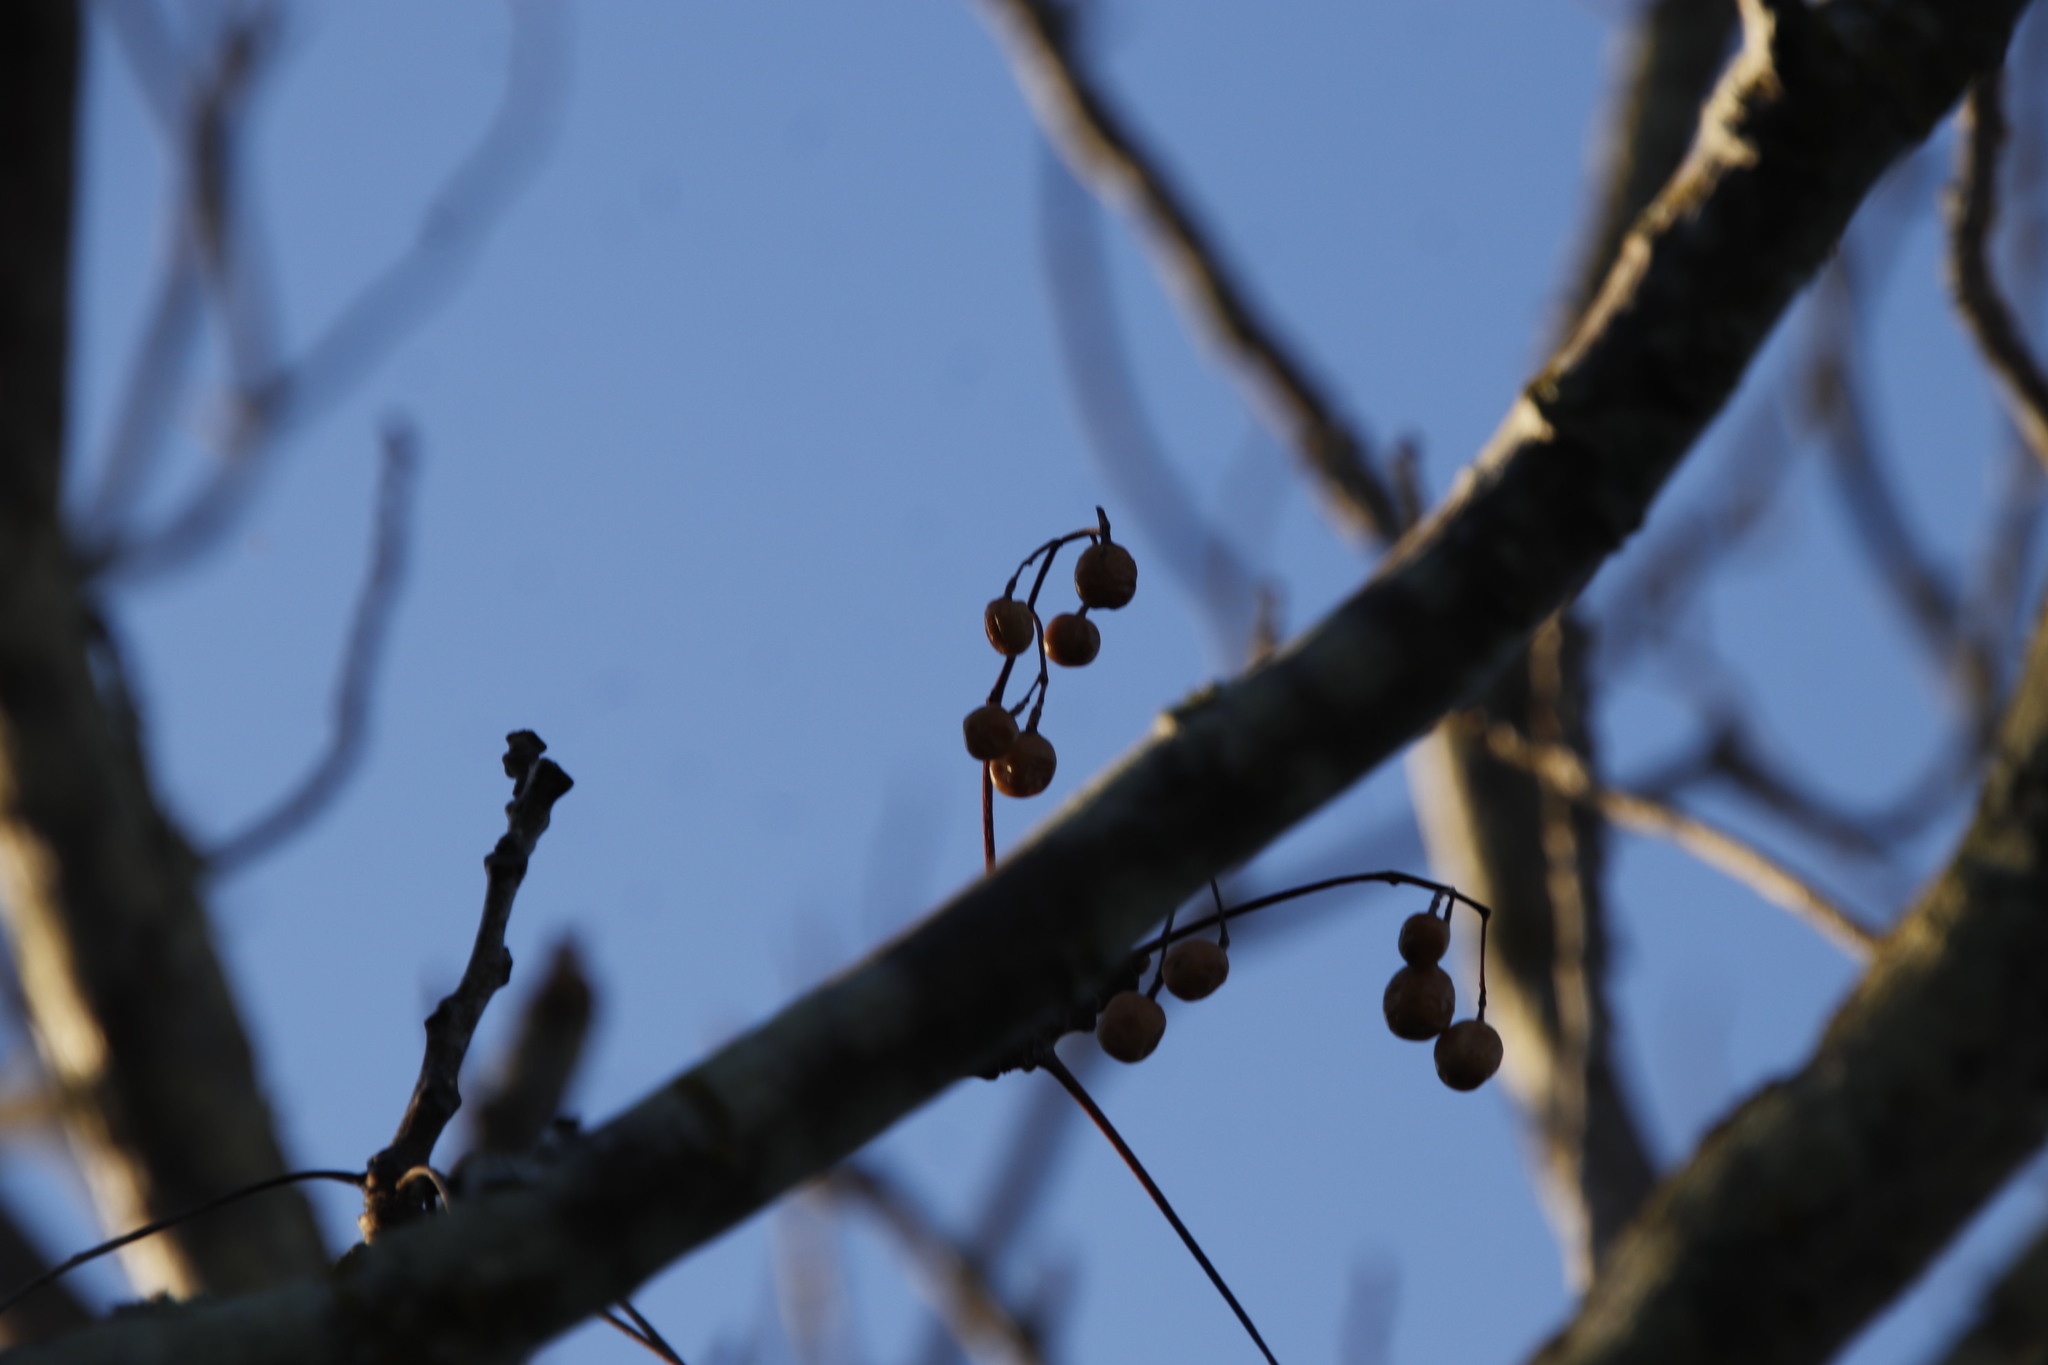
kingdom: Plantae
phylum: Tracheophyta
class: Magnoliopsida
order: Sapindales
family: Meliaceae
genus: Melia
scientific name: Melia azedarach
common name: Chinaberrytree
